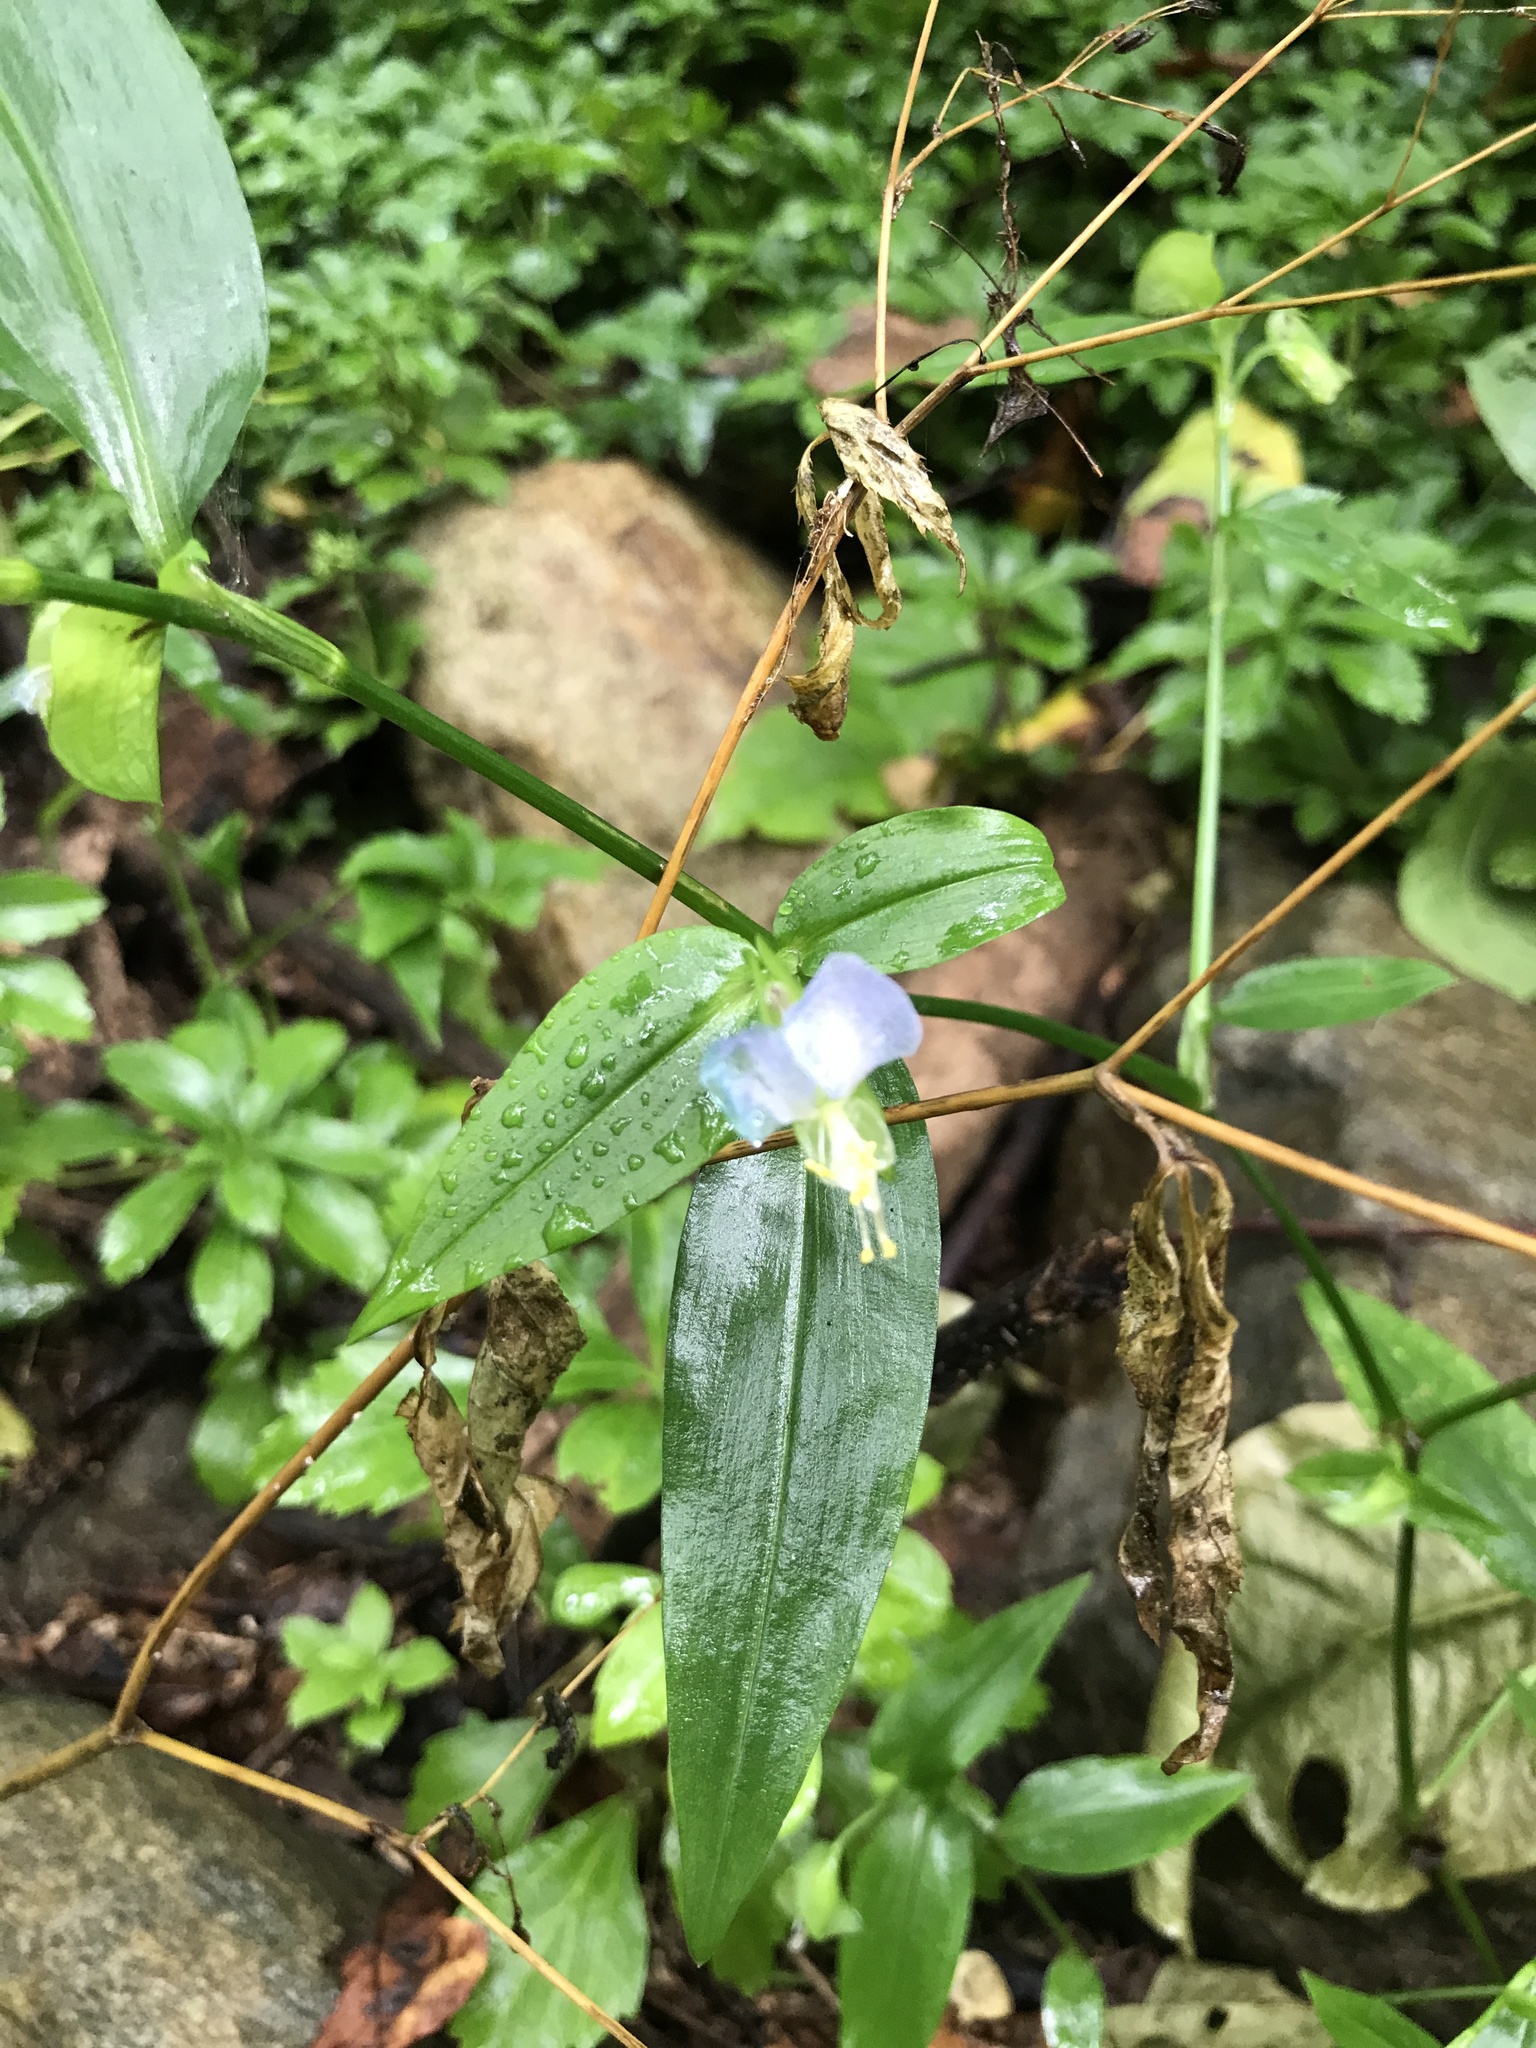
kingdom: Plantae
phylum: Tracheophyta
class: Liliopsida
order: Commelinales
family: Commelinaceae
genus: Commelina
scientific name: Commelina communis
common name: Asiatic dayflower
